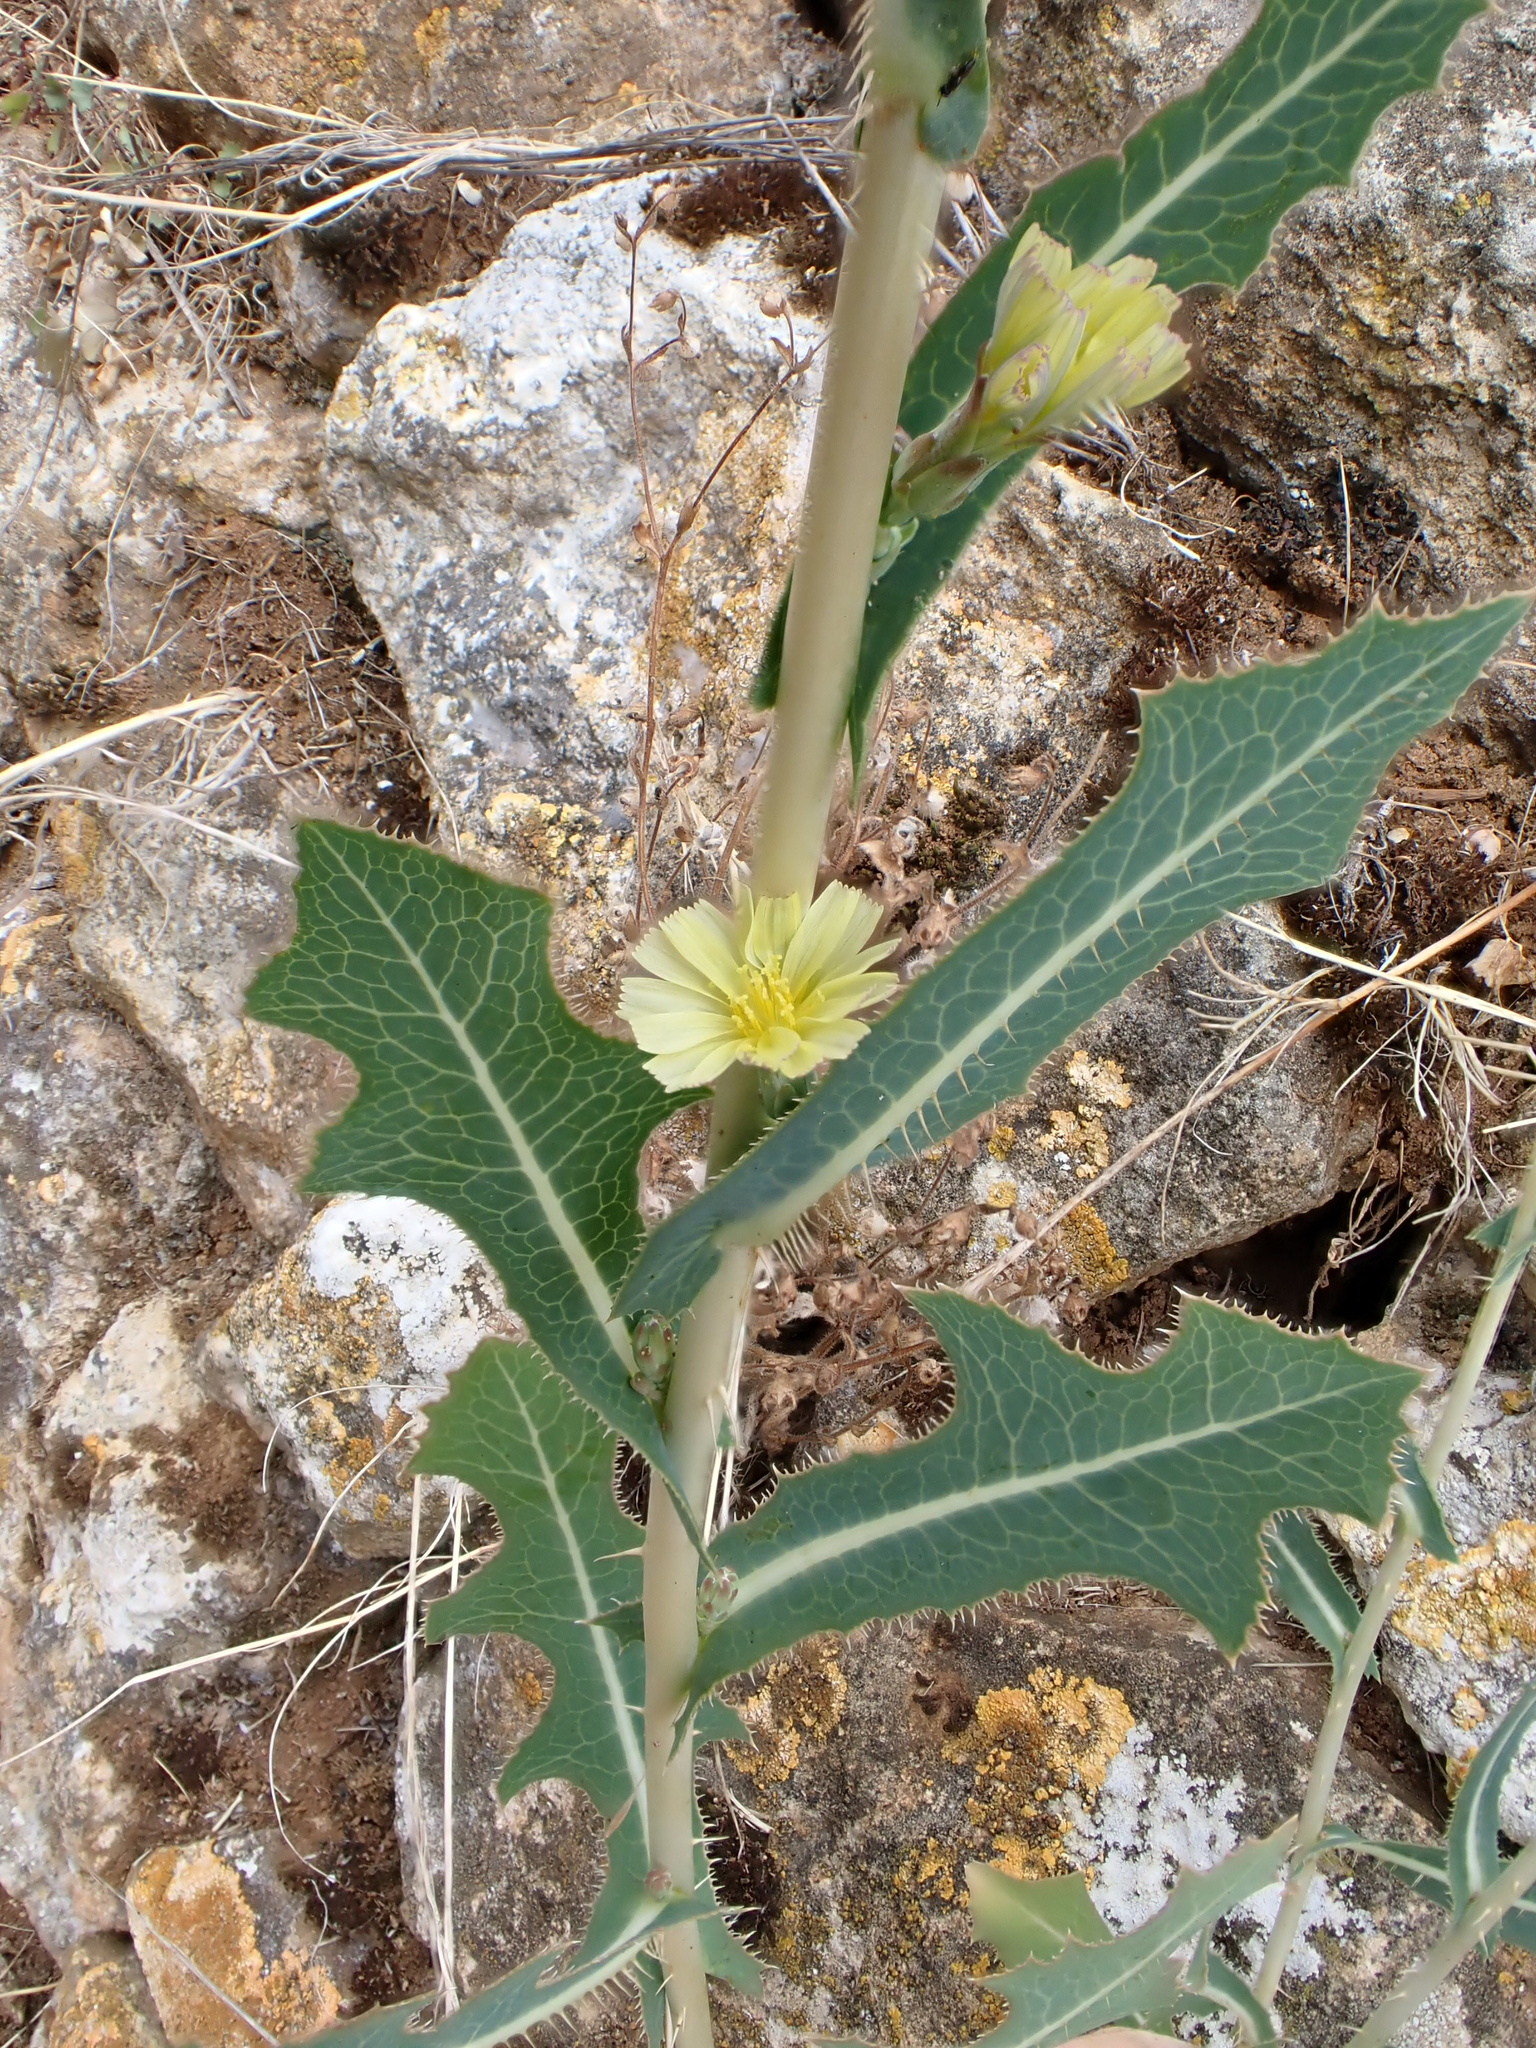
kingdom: Plantae
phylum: Tracheophyta
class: Magnoliopsida
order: Asterales
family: Asteraceae
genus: Lactuca
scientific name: Lactuca serriola
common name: Prickly lettuce
